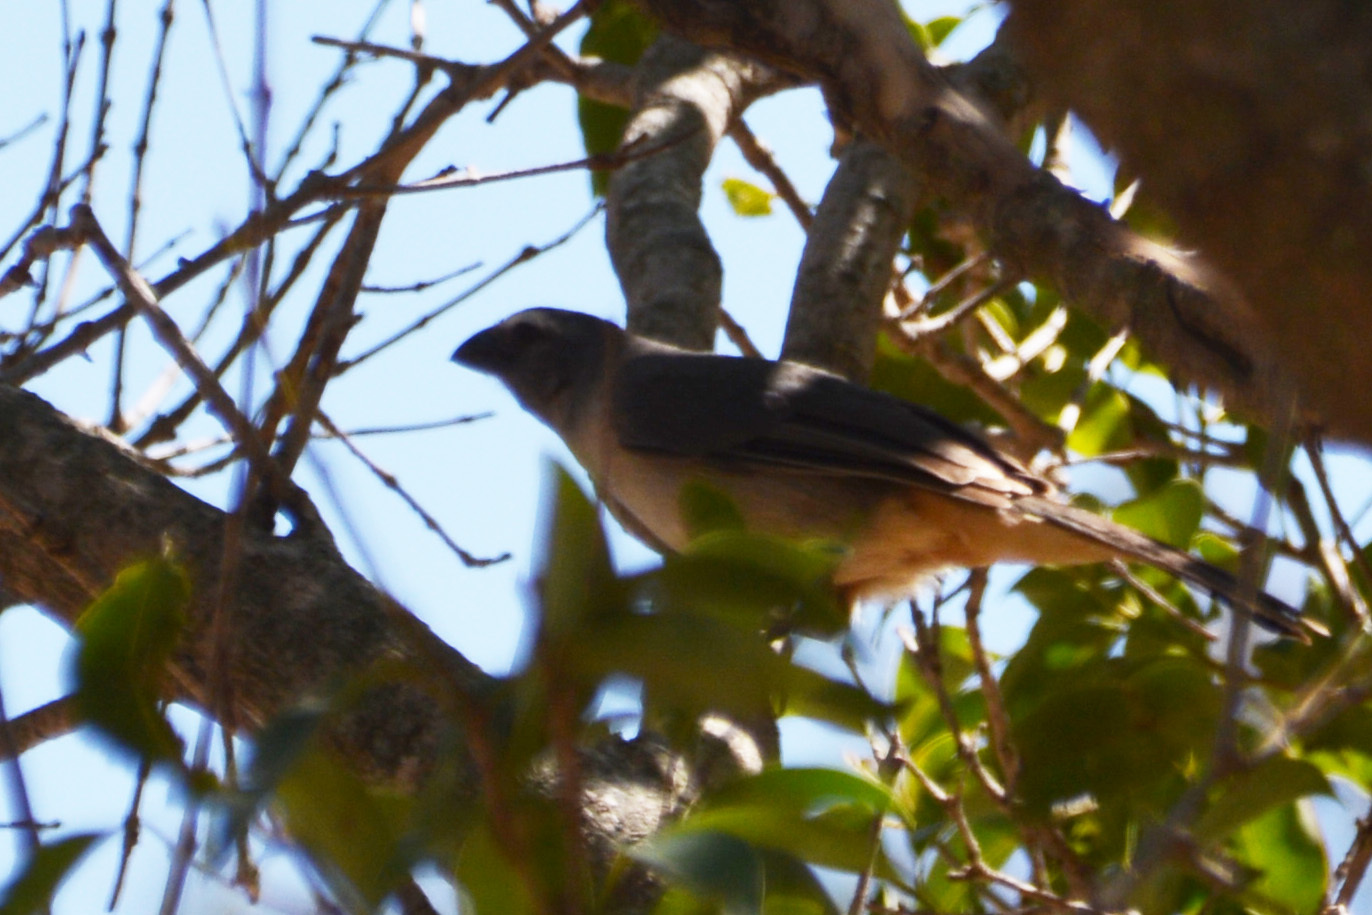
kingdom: Animalia
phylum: Chordata
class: Aves
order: Passeriformes
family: Thraupidae
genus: Saltator
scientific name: Saltator coerulescens
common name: Grayish saltator
